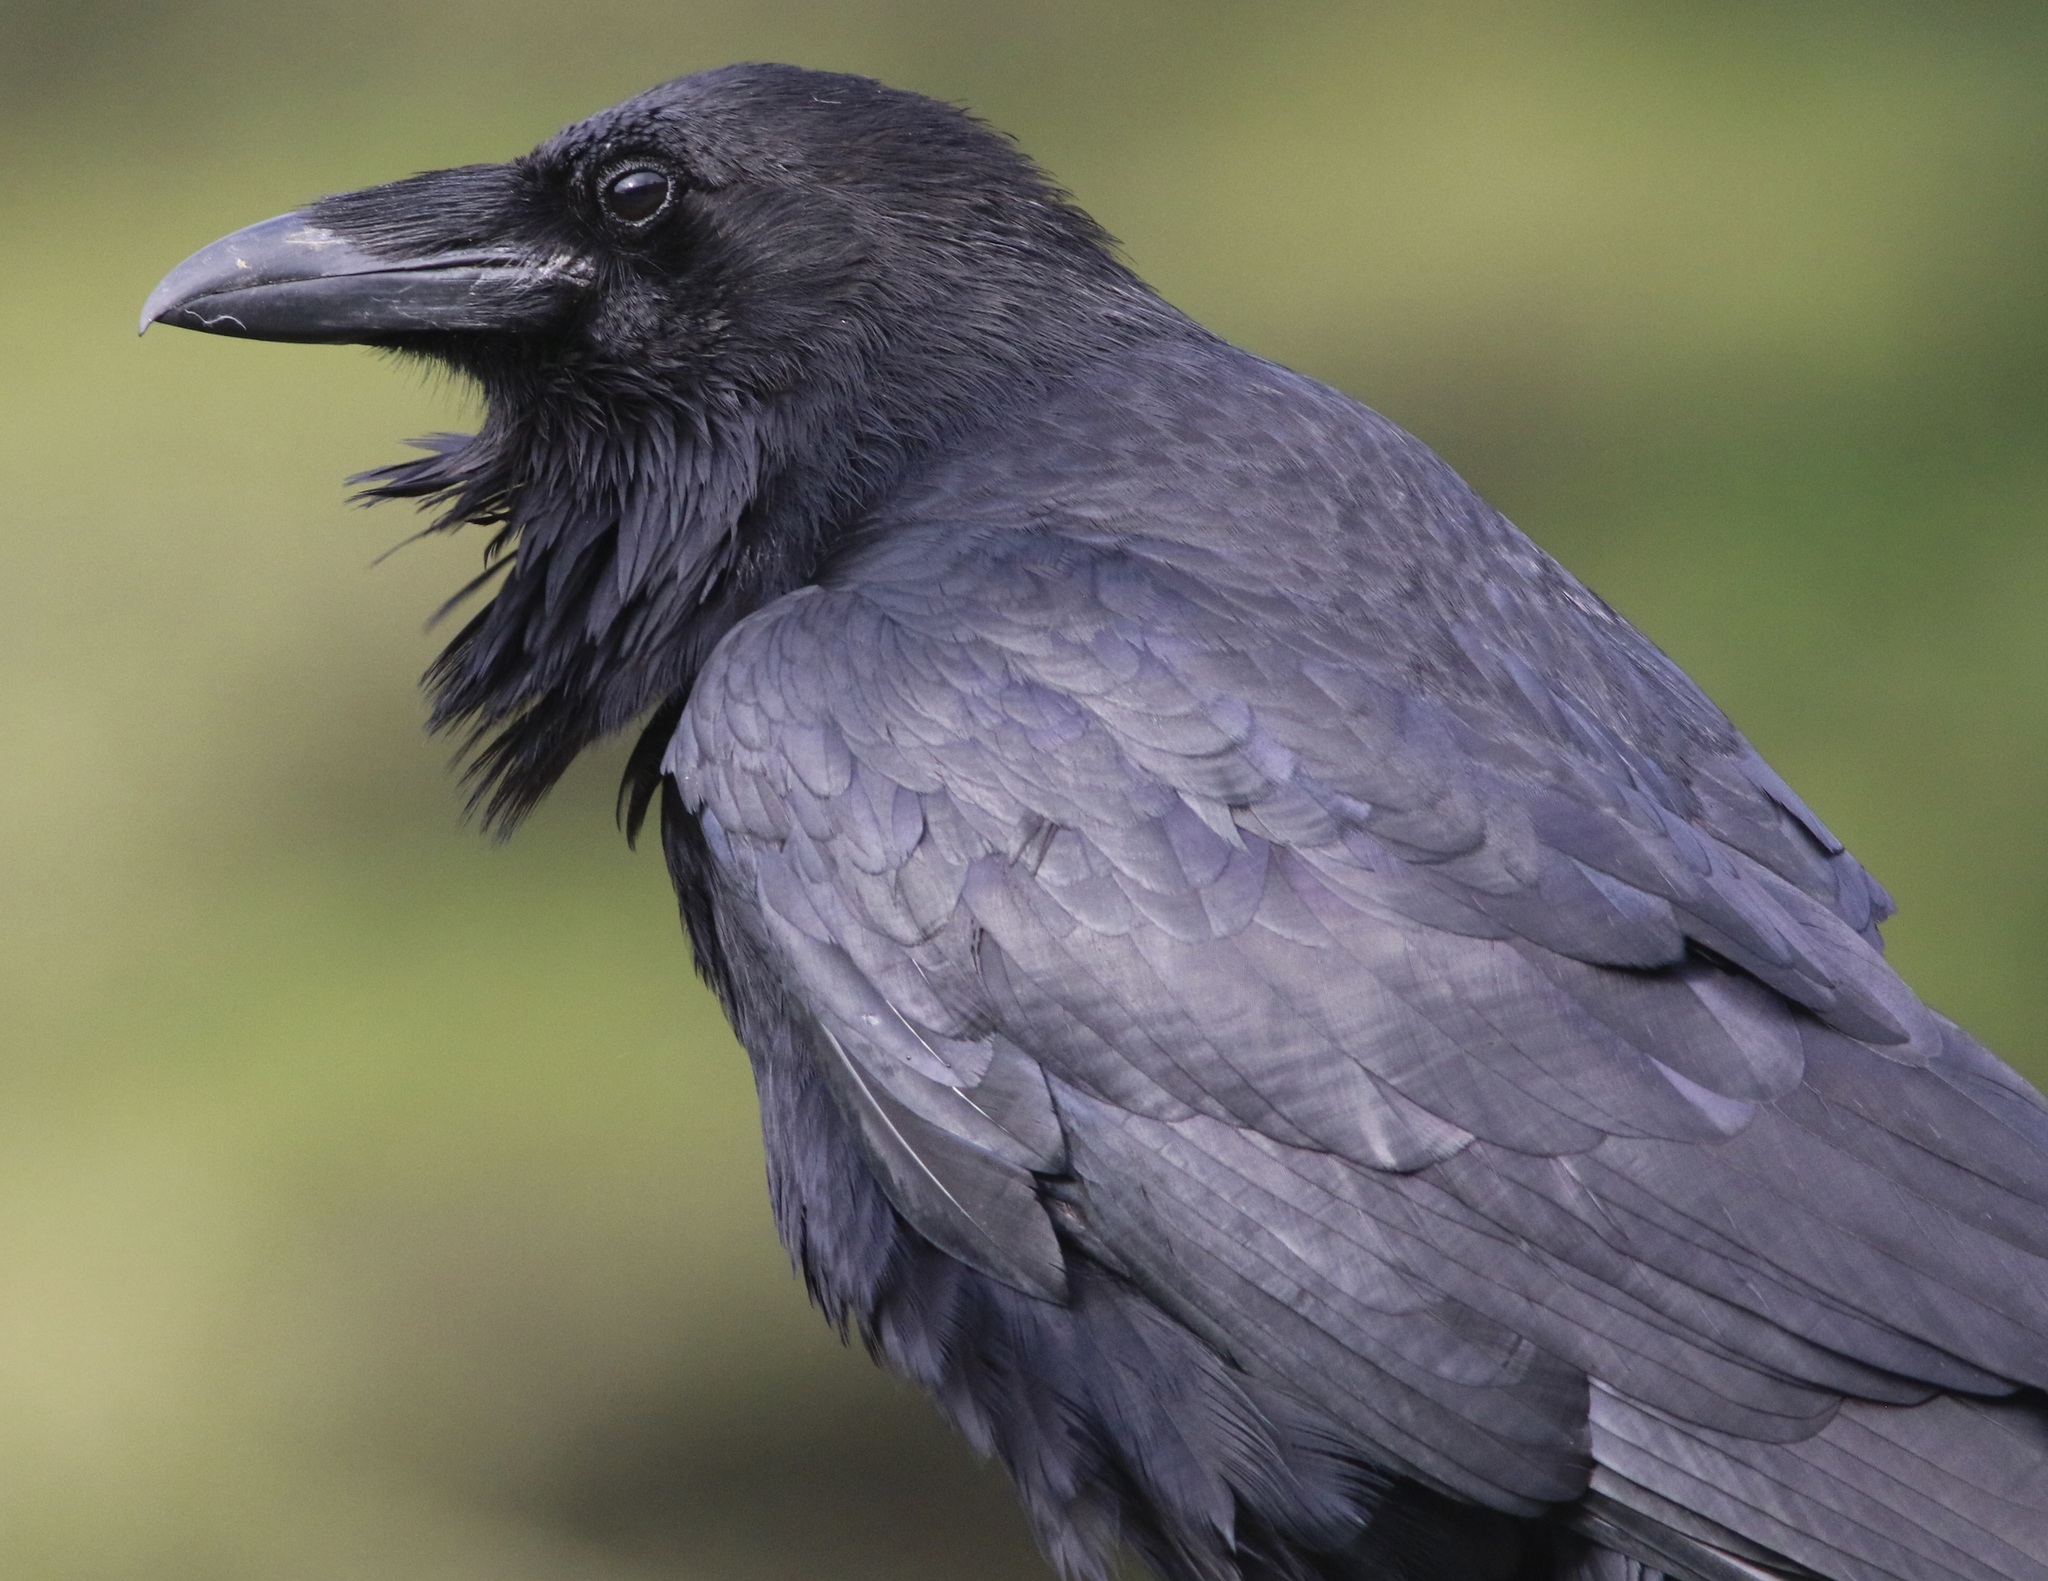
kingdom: Animalia
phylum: Chordata
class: Aves
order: Passeriformes
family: Corvidae
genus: Corvus
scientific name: Corvus corax
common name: Common raven
